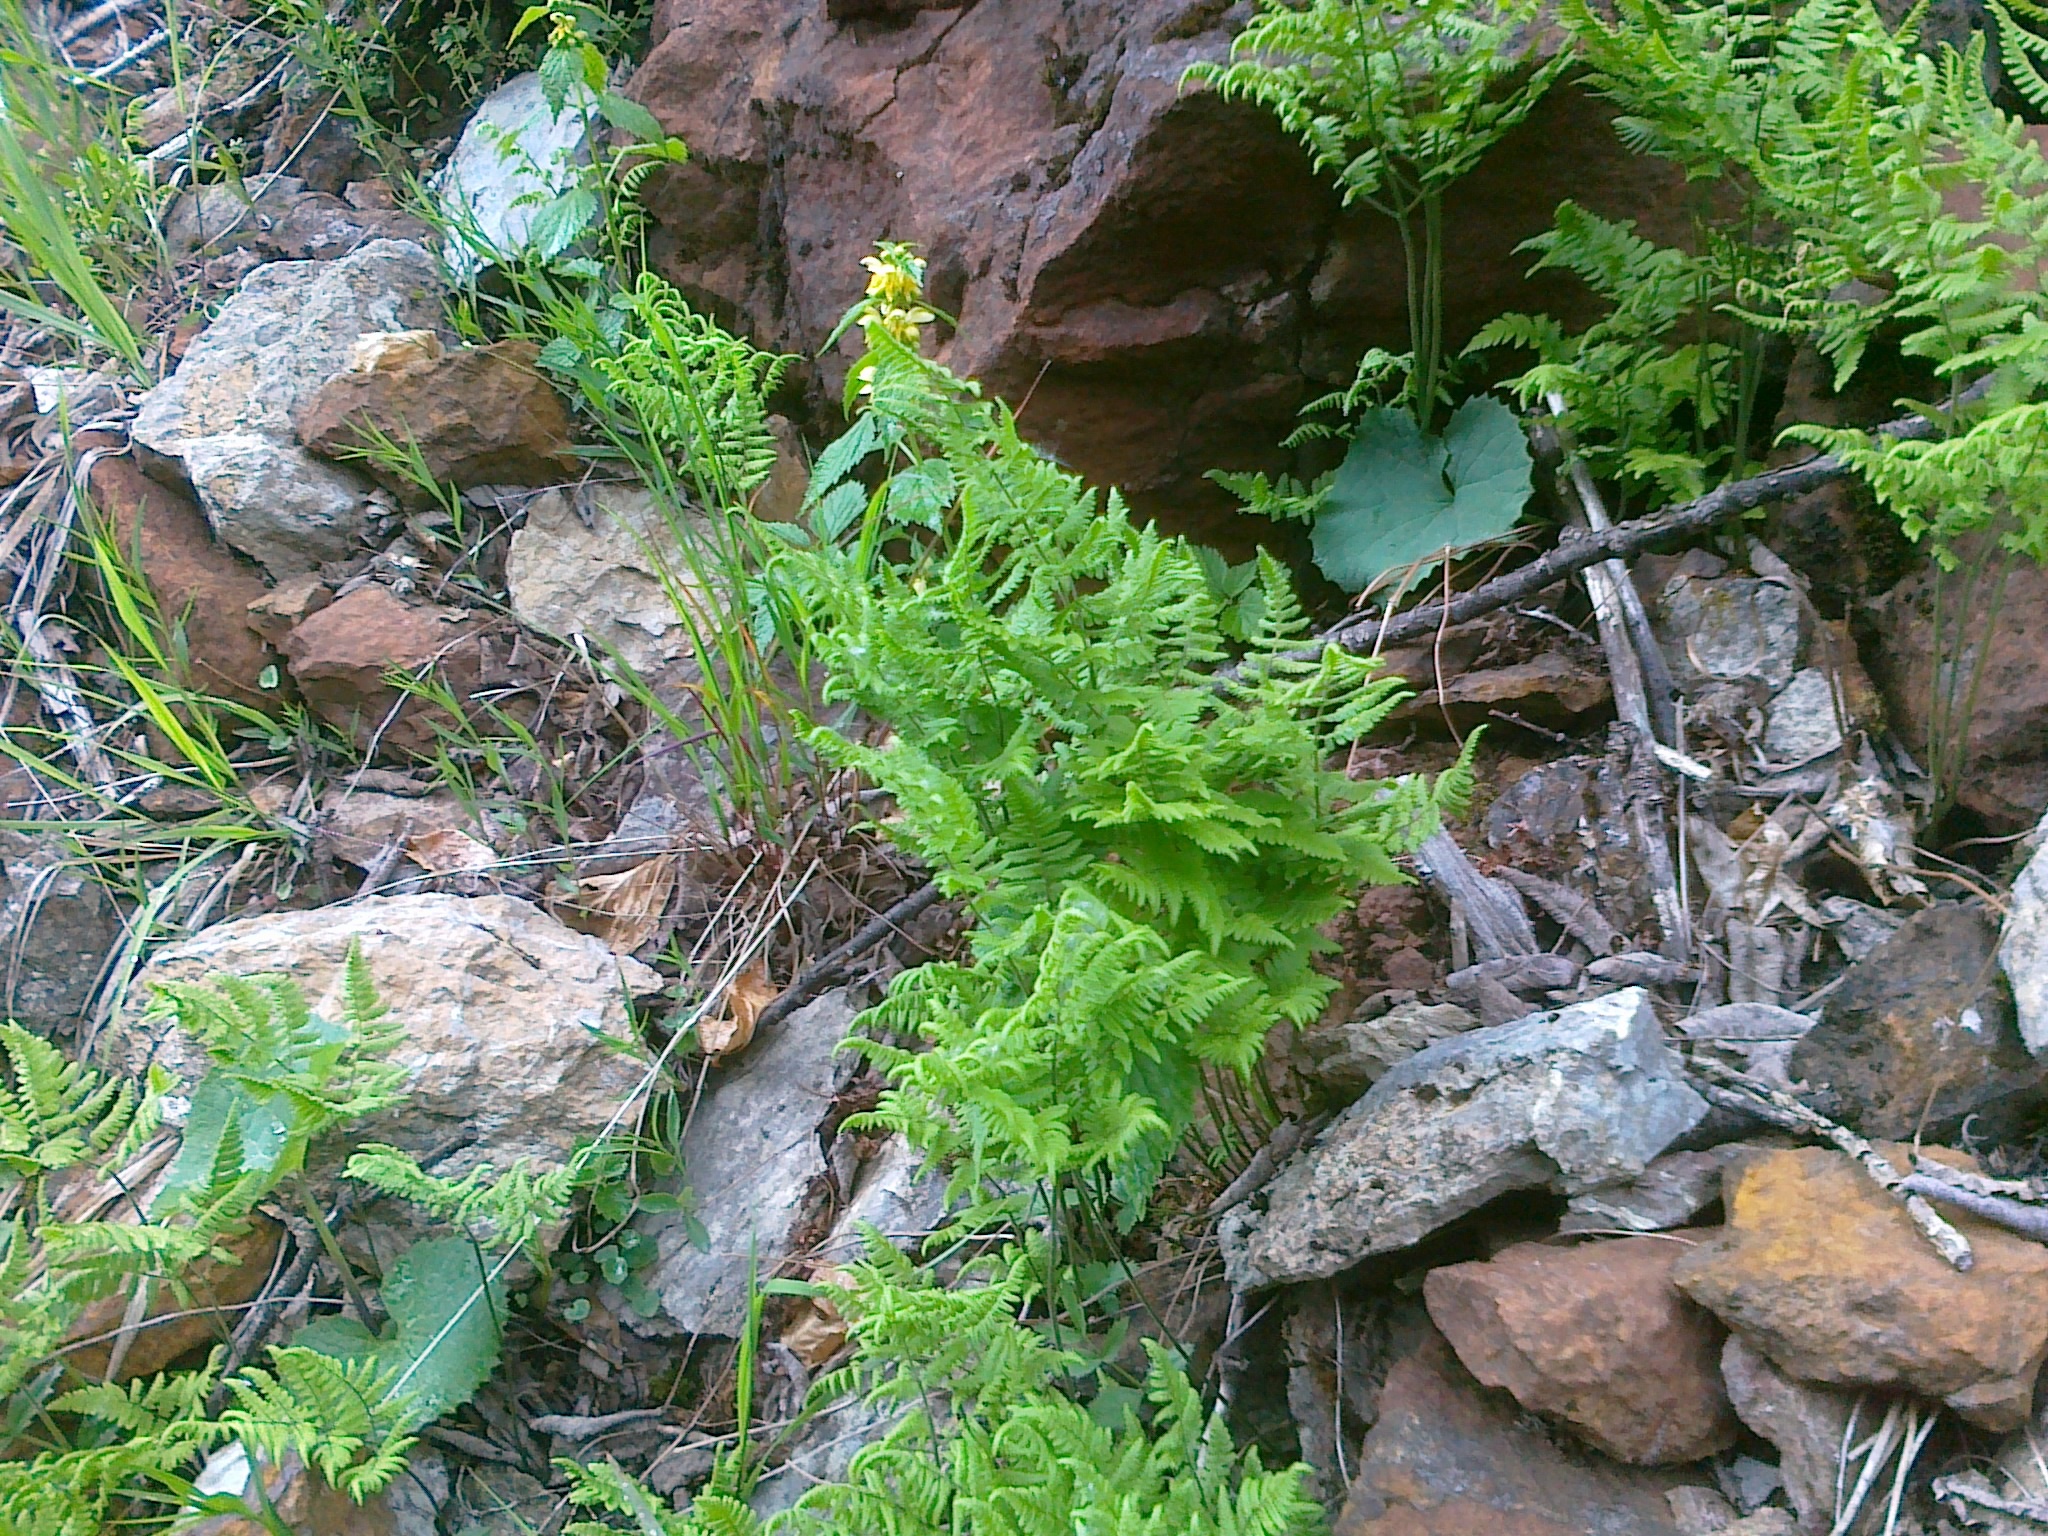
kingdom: Plantae
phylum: Tracheophyta
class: Polypodiopsida
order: Polypodiales
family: Cystopteridaceae
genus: Gymnocarpium
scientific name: Gymnocarpium robertianum
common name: Limestone fern
